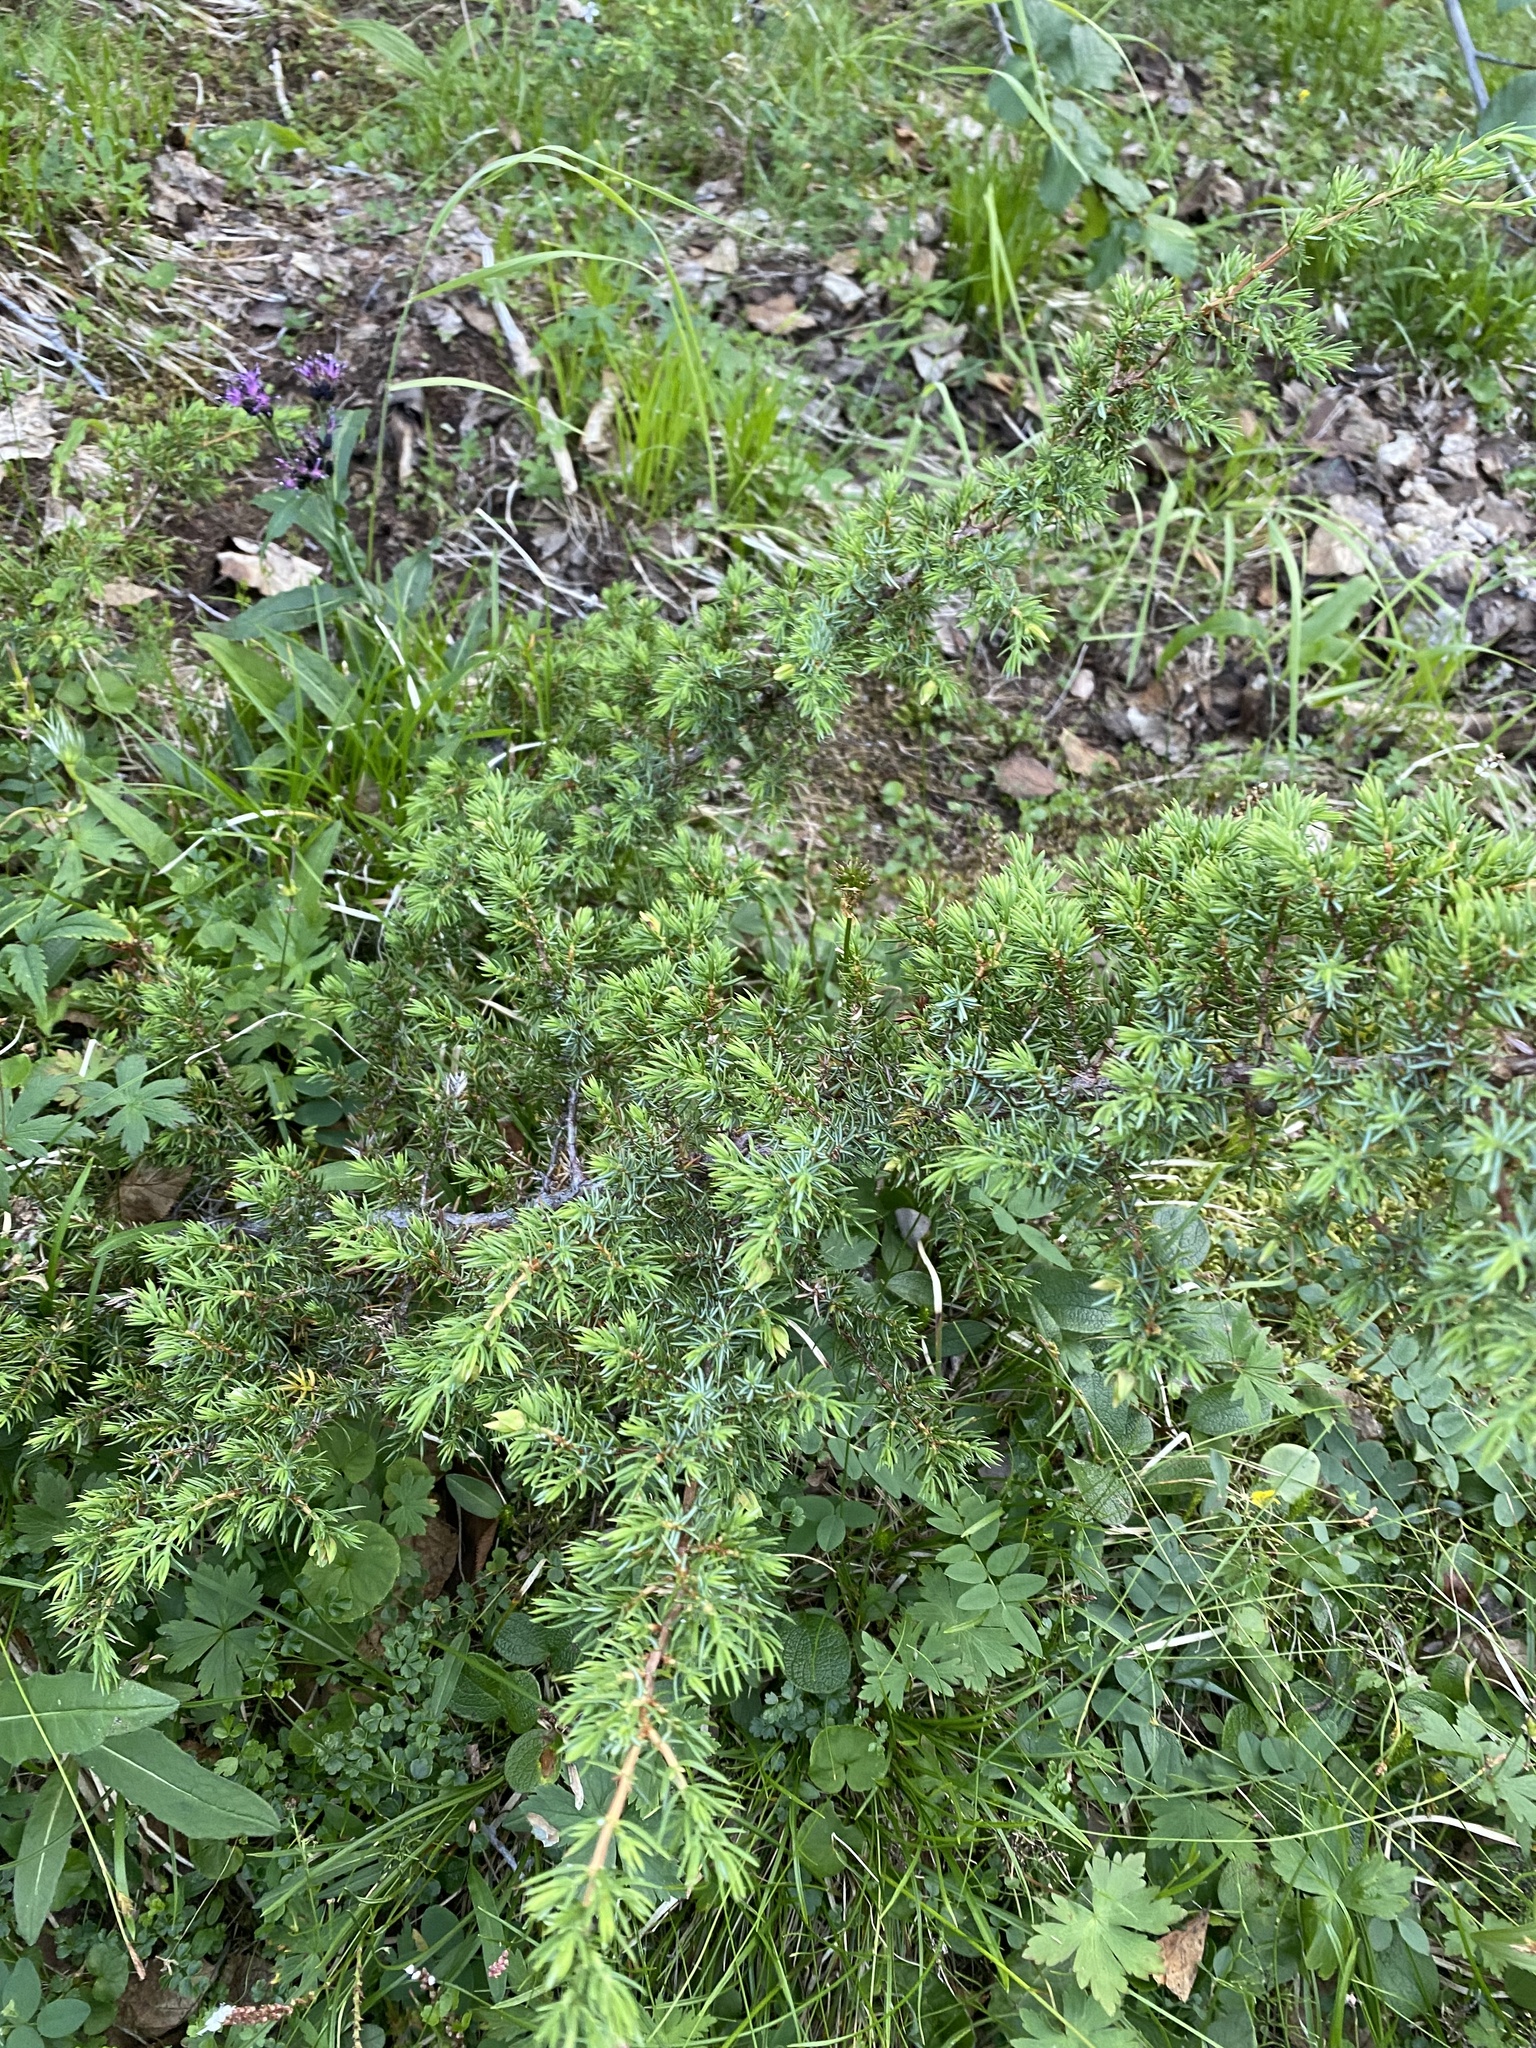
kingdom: Plantae
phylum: Tracheophyta
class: Pinopsida
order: Pinales
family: Cupressaceae
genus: Juniperus
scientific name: Juniperus communis
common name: Common juniper
